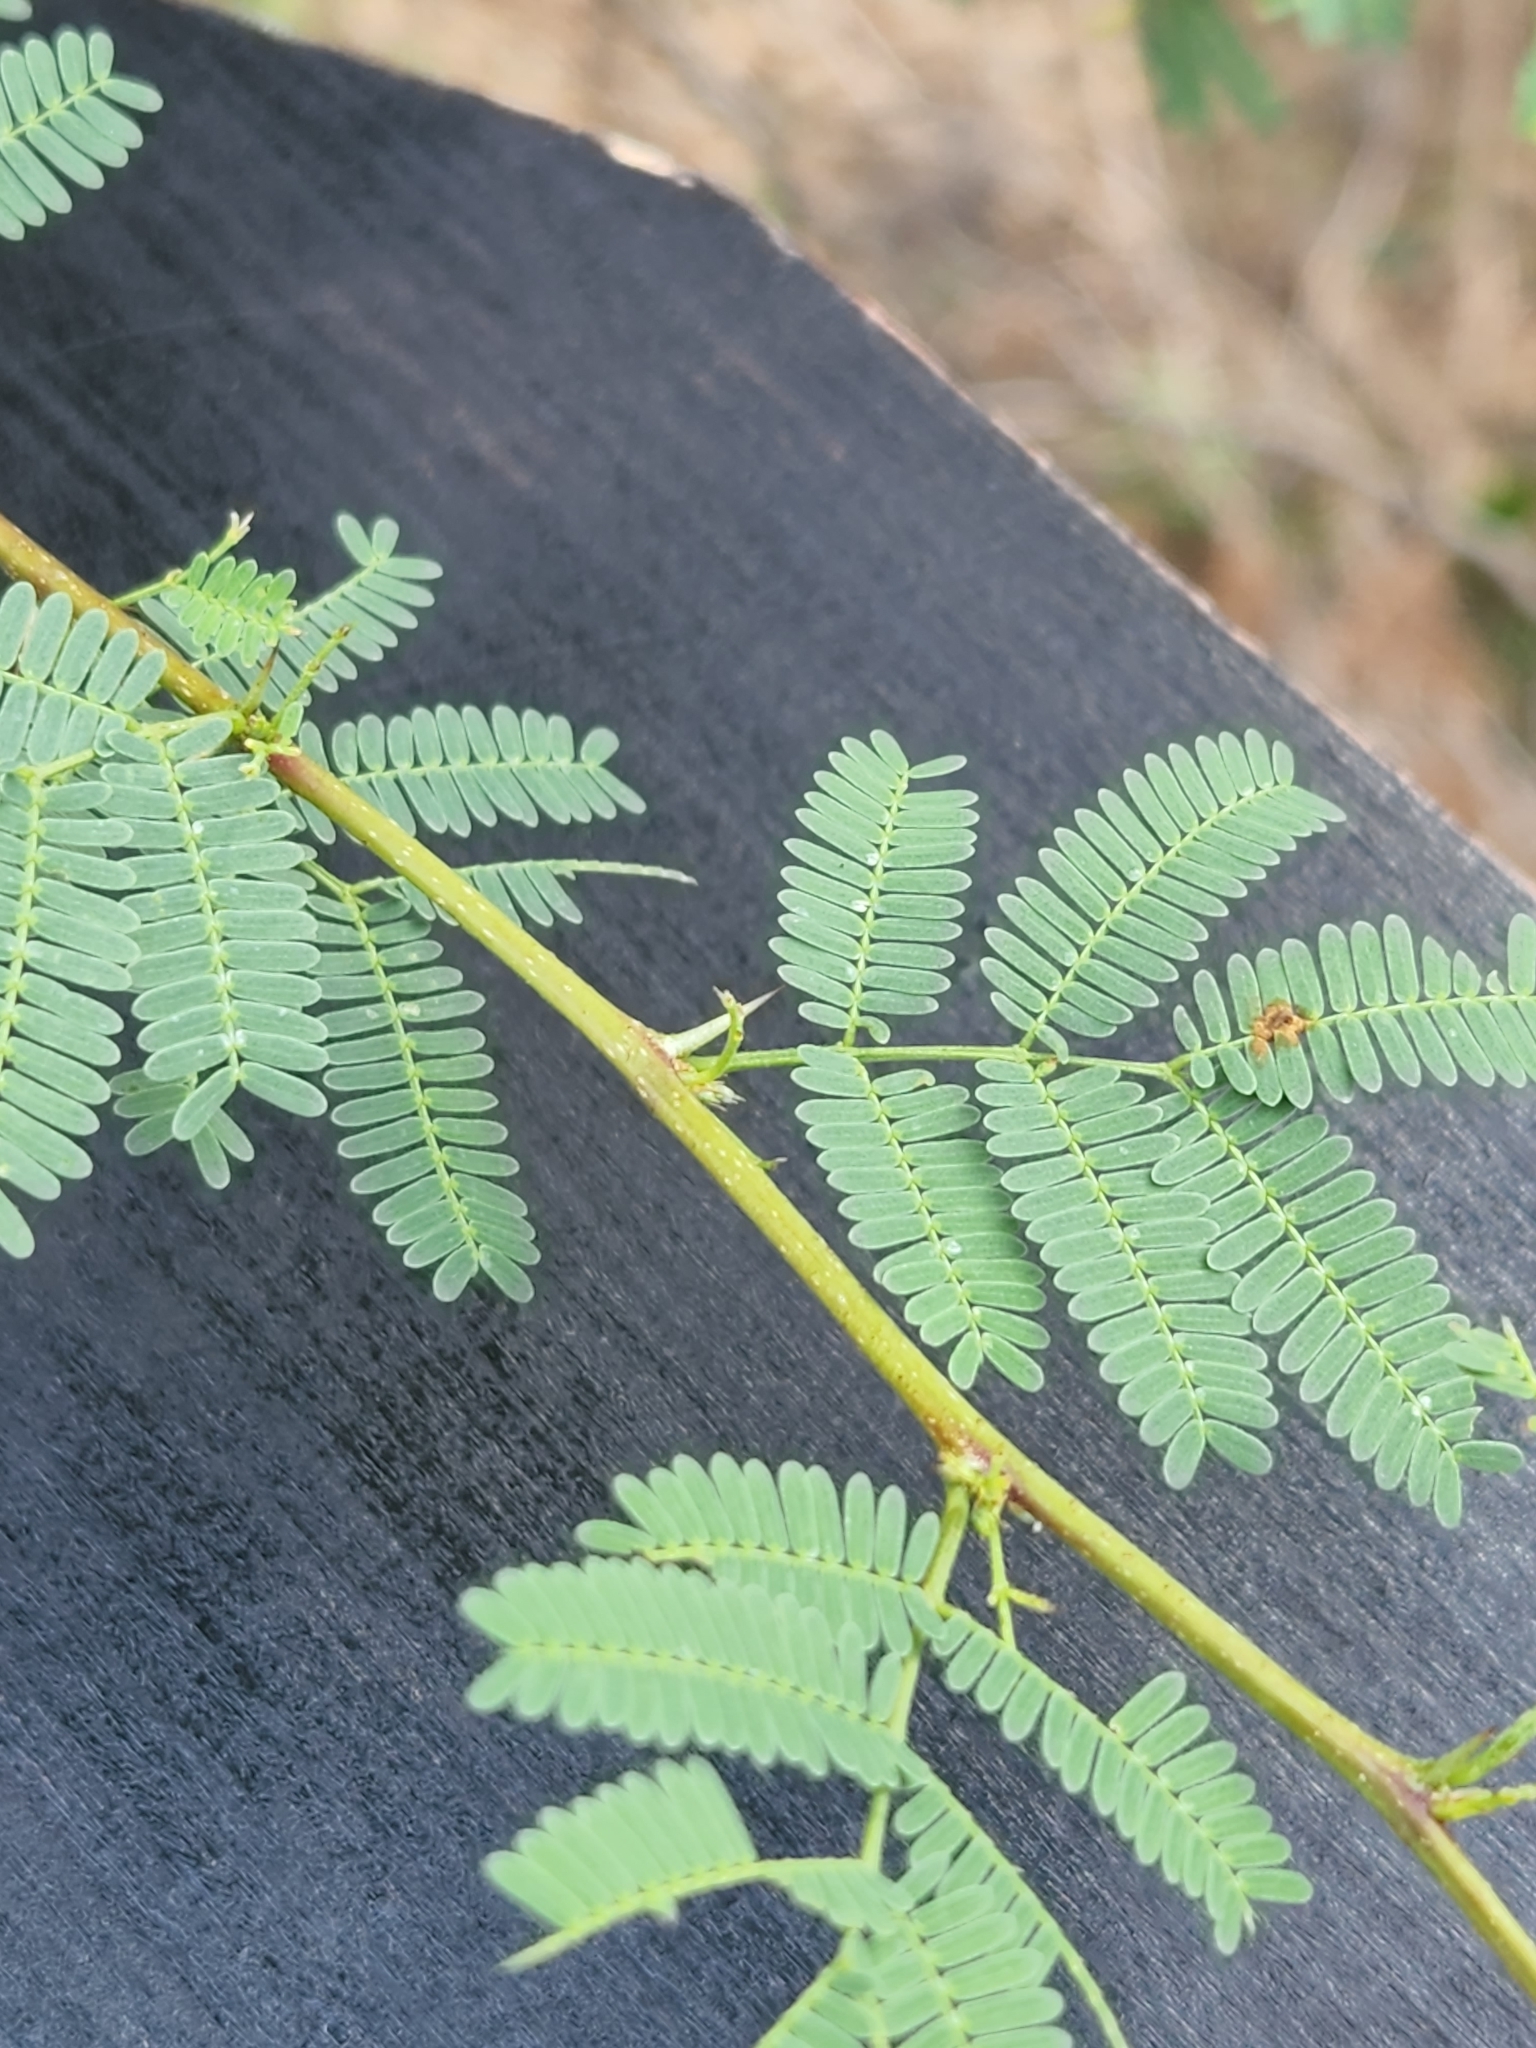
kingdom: Plantae
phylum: Tracheophyta
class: Magnoliopsida
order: Fabales
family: Fabaceae
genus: Vachellia
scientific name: Vachellia farnesiana
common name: Sweet acacia
